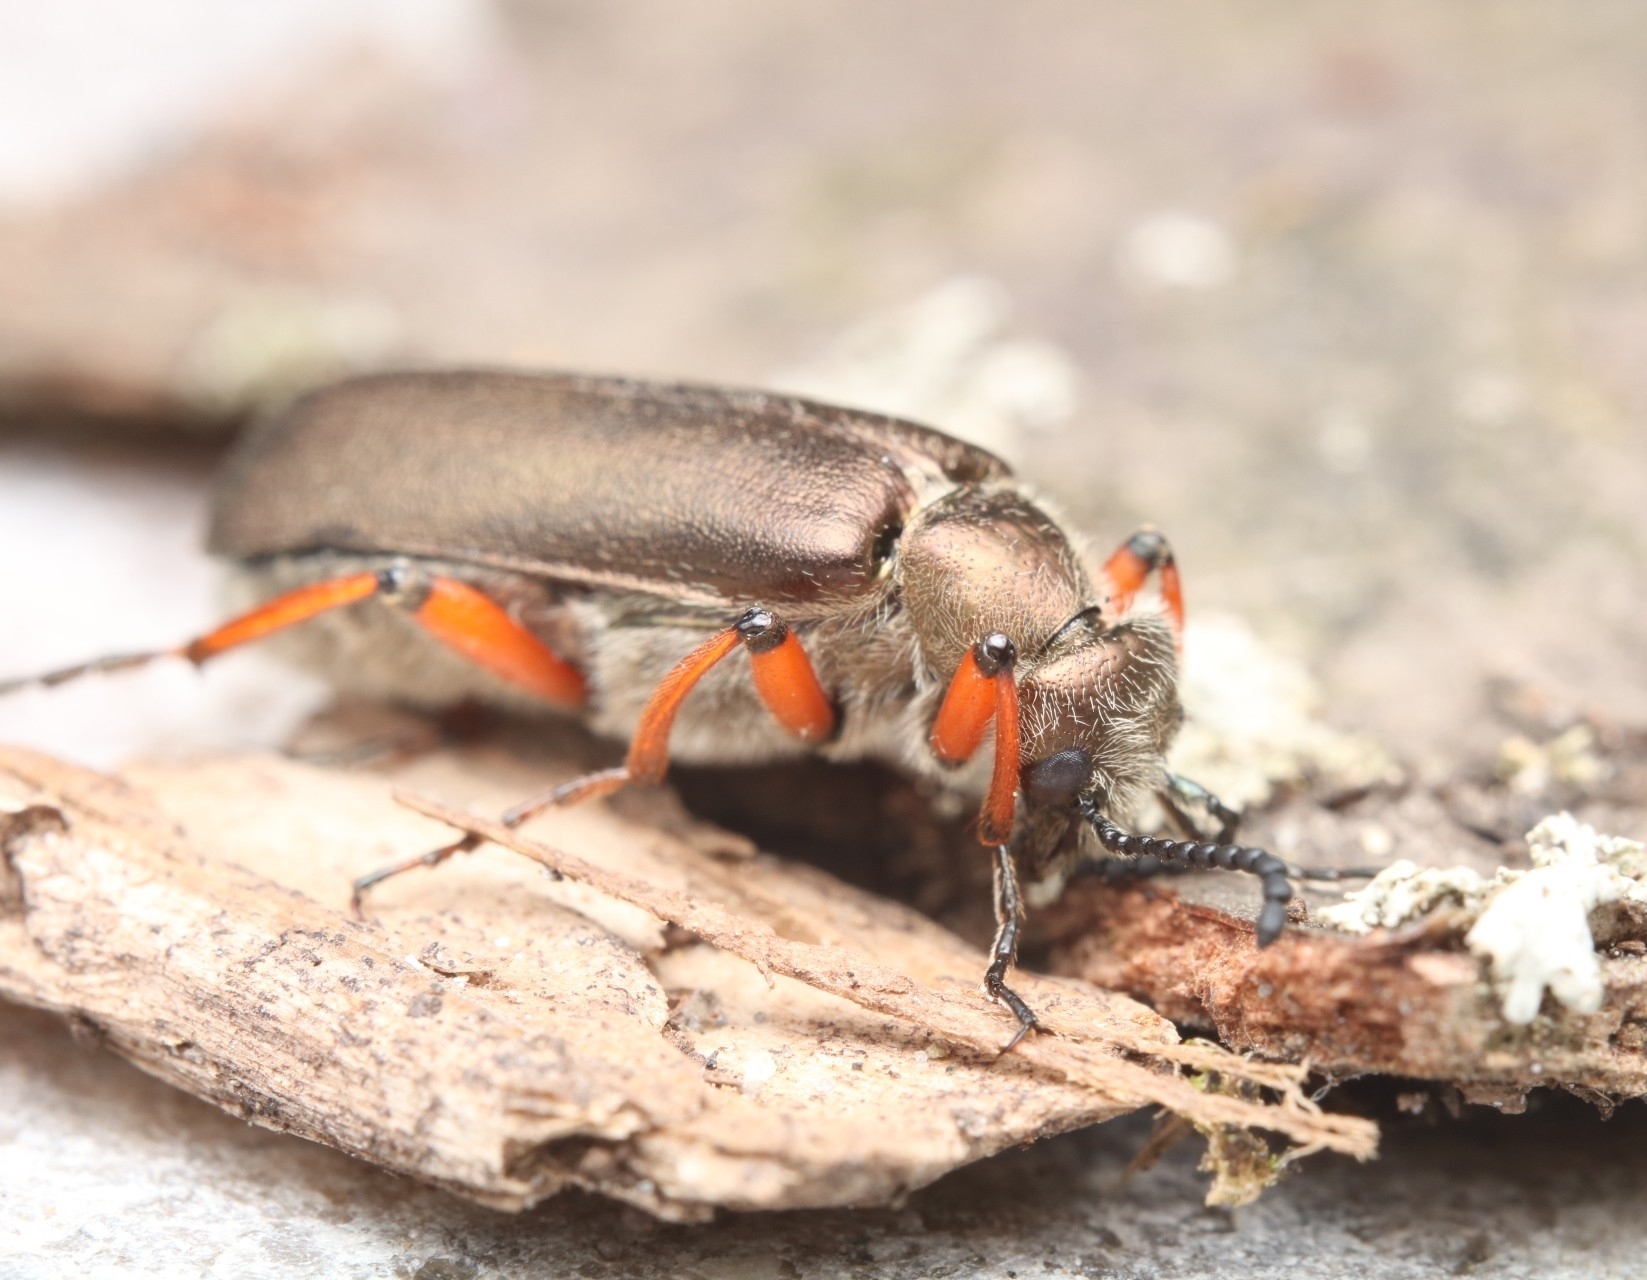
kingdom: Animalia
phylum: Arthropoda
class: Insecta
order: Coleoptera
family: Meloidae
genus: Lytta
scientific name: Lytta aenea
